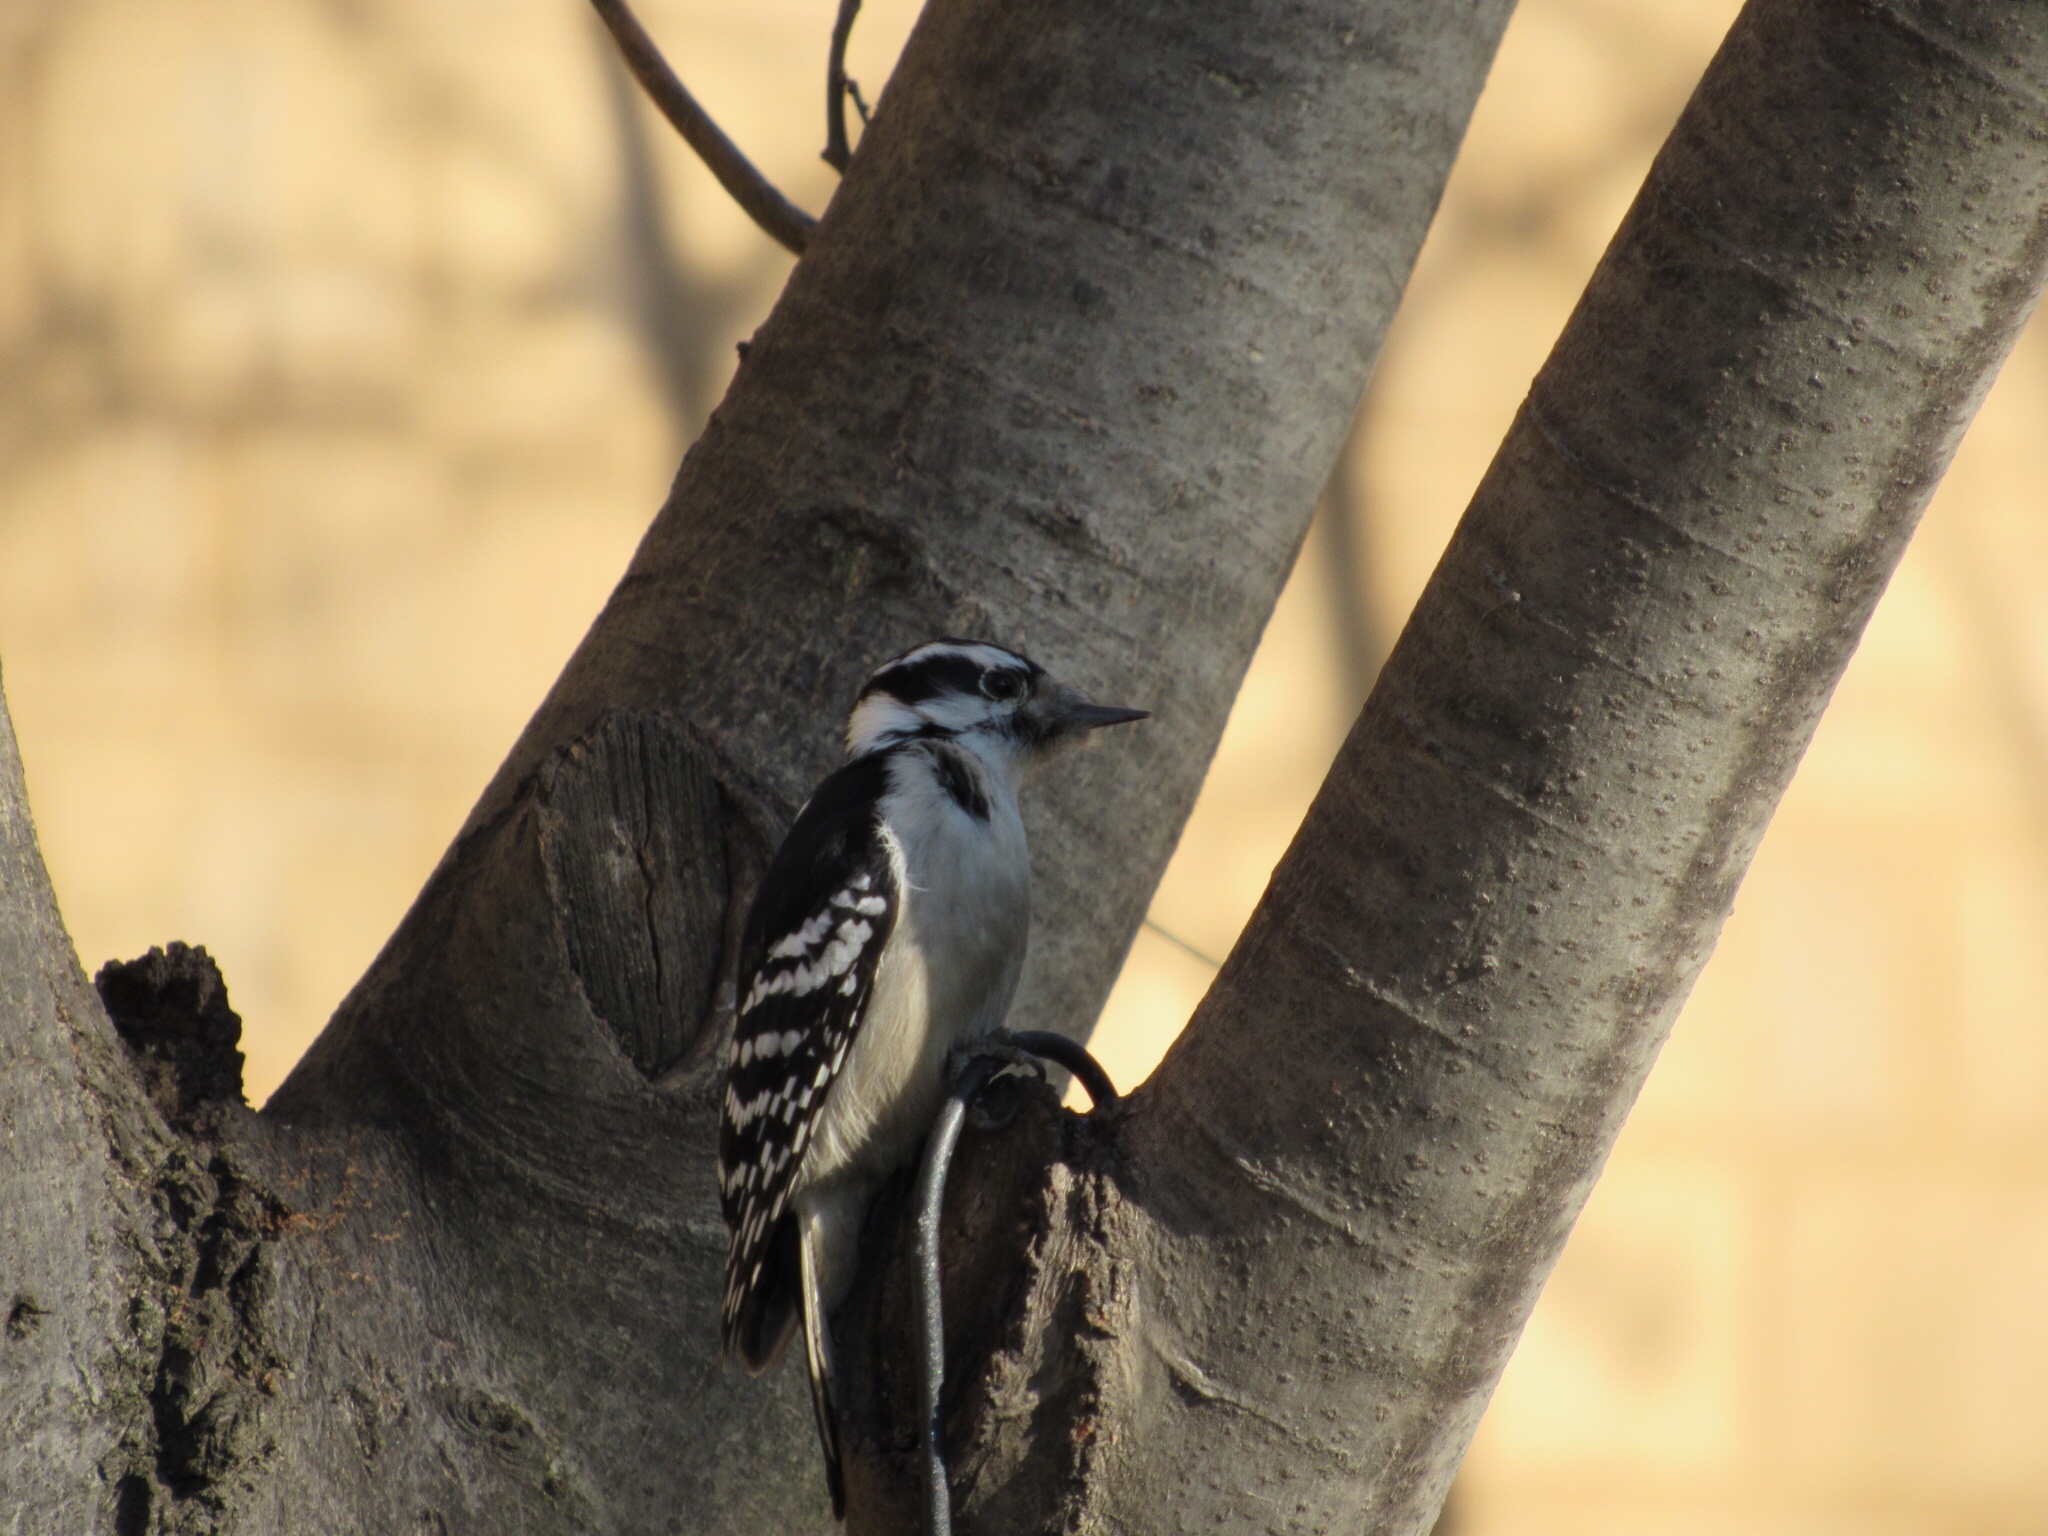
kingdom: Animalia
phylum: Chordata
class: Aves
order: Piciformes
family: Picidae
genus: Dryobates
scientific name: Dryobates pubescens
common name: Downy woodpecker
